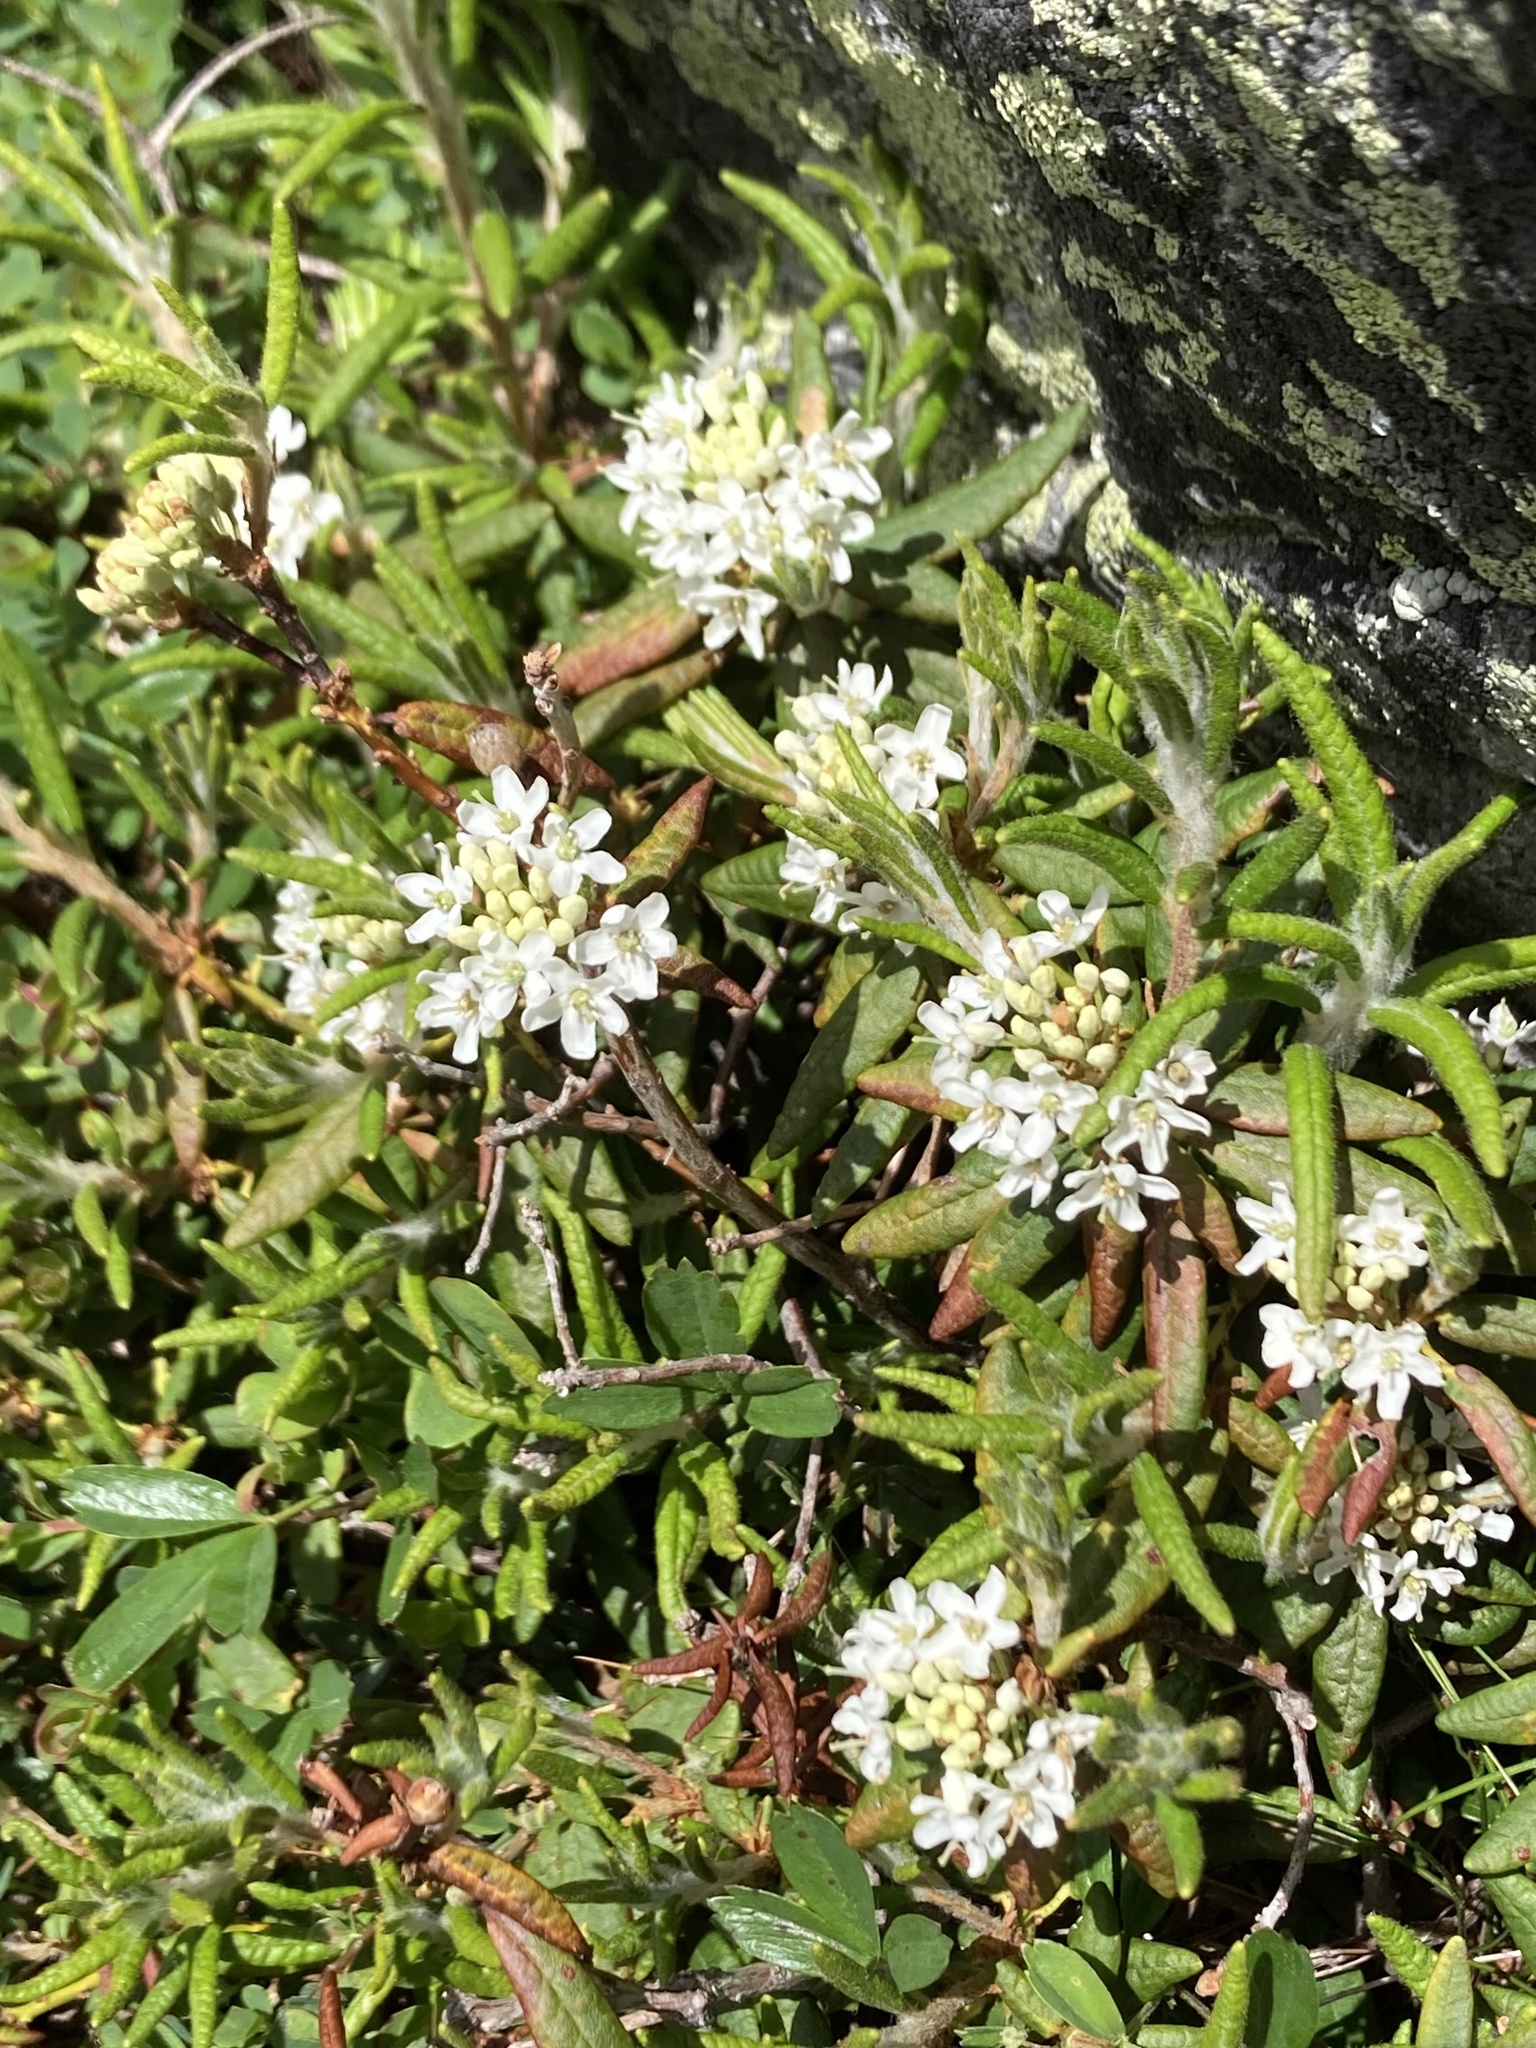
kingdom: Plantae
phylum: Tracheophyta
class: Magnoliopsida
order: Ericales
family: Ericaceae
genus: Rhododendron
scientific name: Rhododendron groenlandicum
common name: Bog labrador tea
